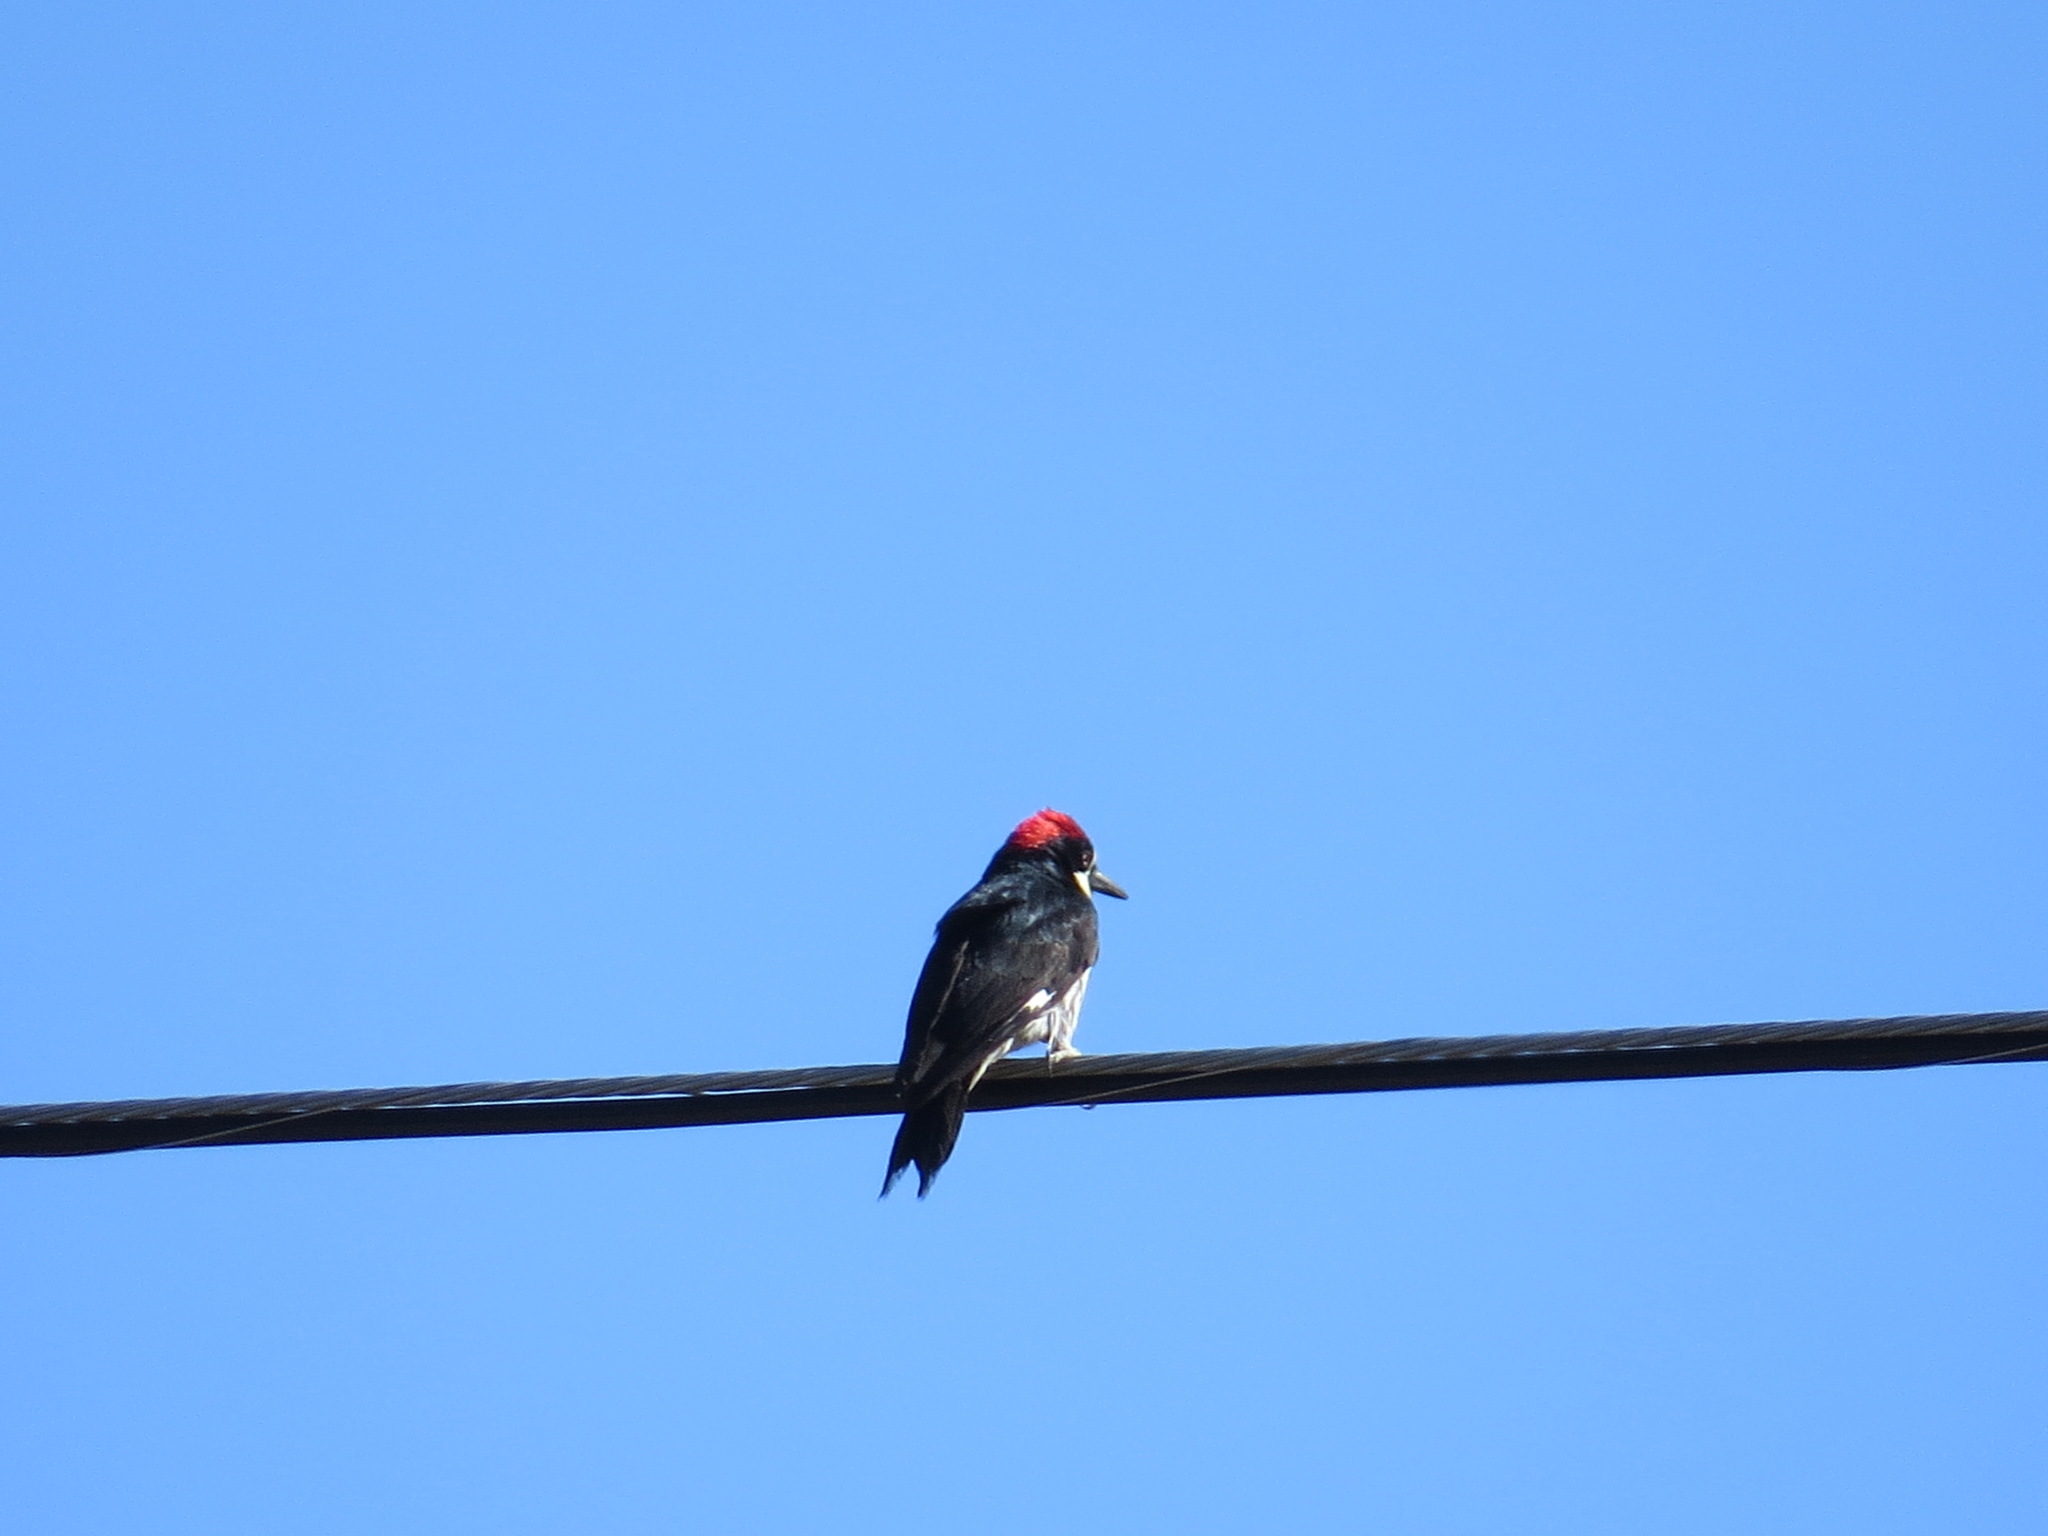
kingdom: Animalia
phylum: Chordata
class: Aves
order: Piciformes
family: Picidae
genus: Melanerpes
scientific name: Melanerpes formicivorus
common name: Acorn woodpecker
